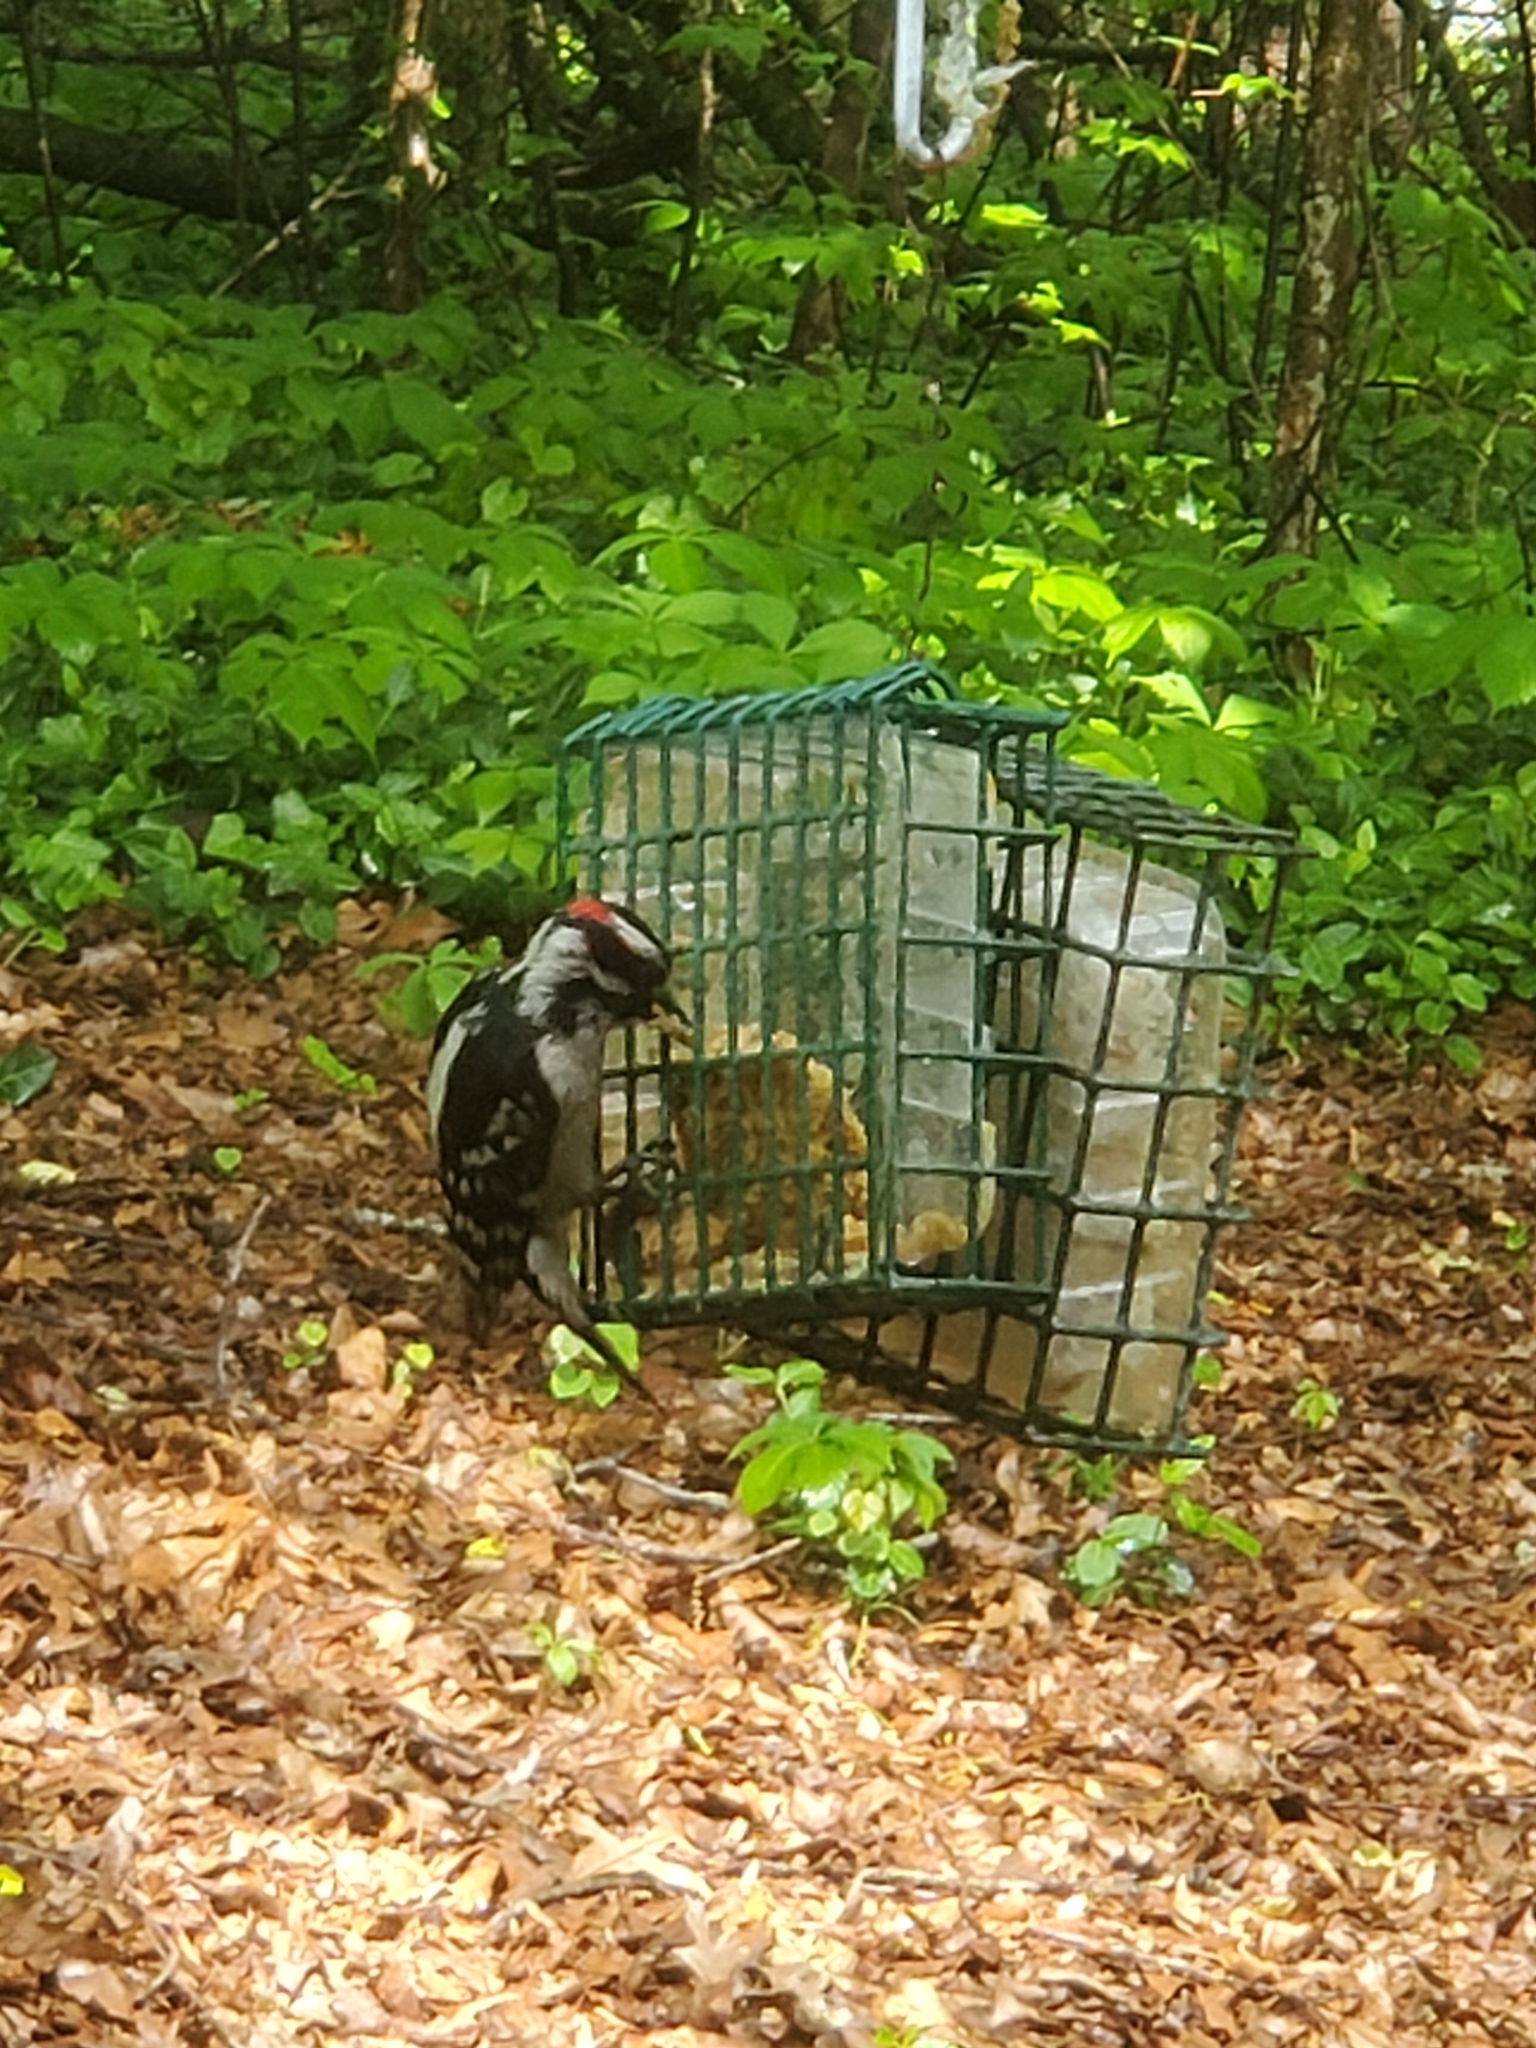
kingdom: Animalia
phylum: Chordata
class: Aves
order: Piciformes
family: Picidae
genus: Dryobates
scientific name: Dryobates pubescens
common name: Downy woodpecker
